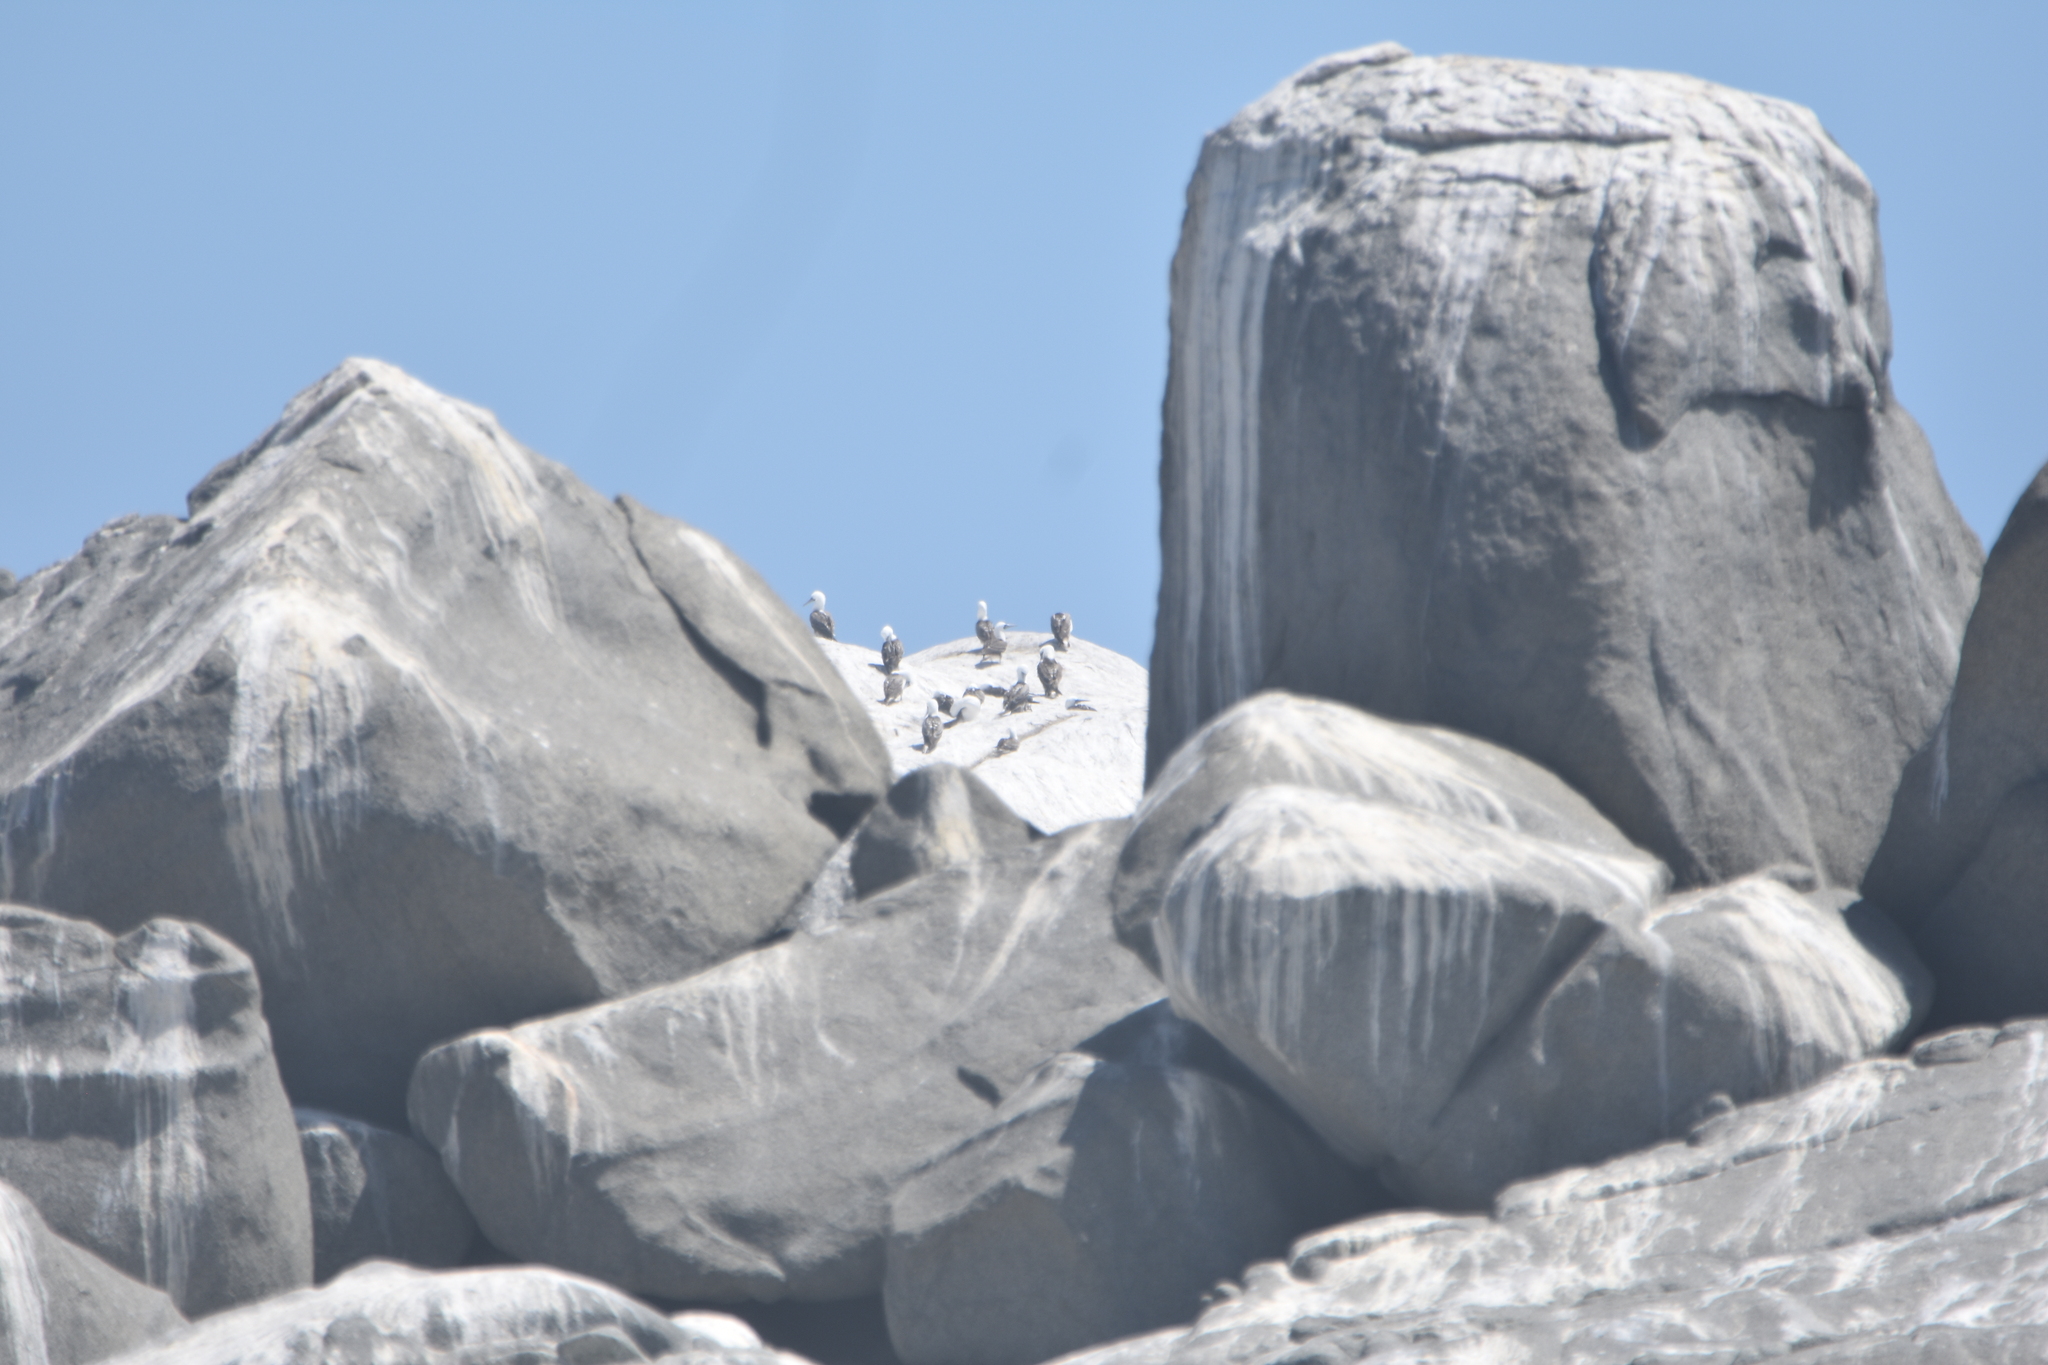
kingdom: Animalia
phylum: Chordata
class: Aves
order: Suliformes
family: Sulidae
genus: Sula
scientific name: Sula variegata
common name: Peruvian booby
